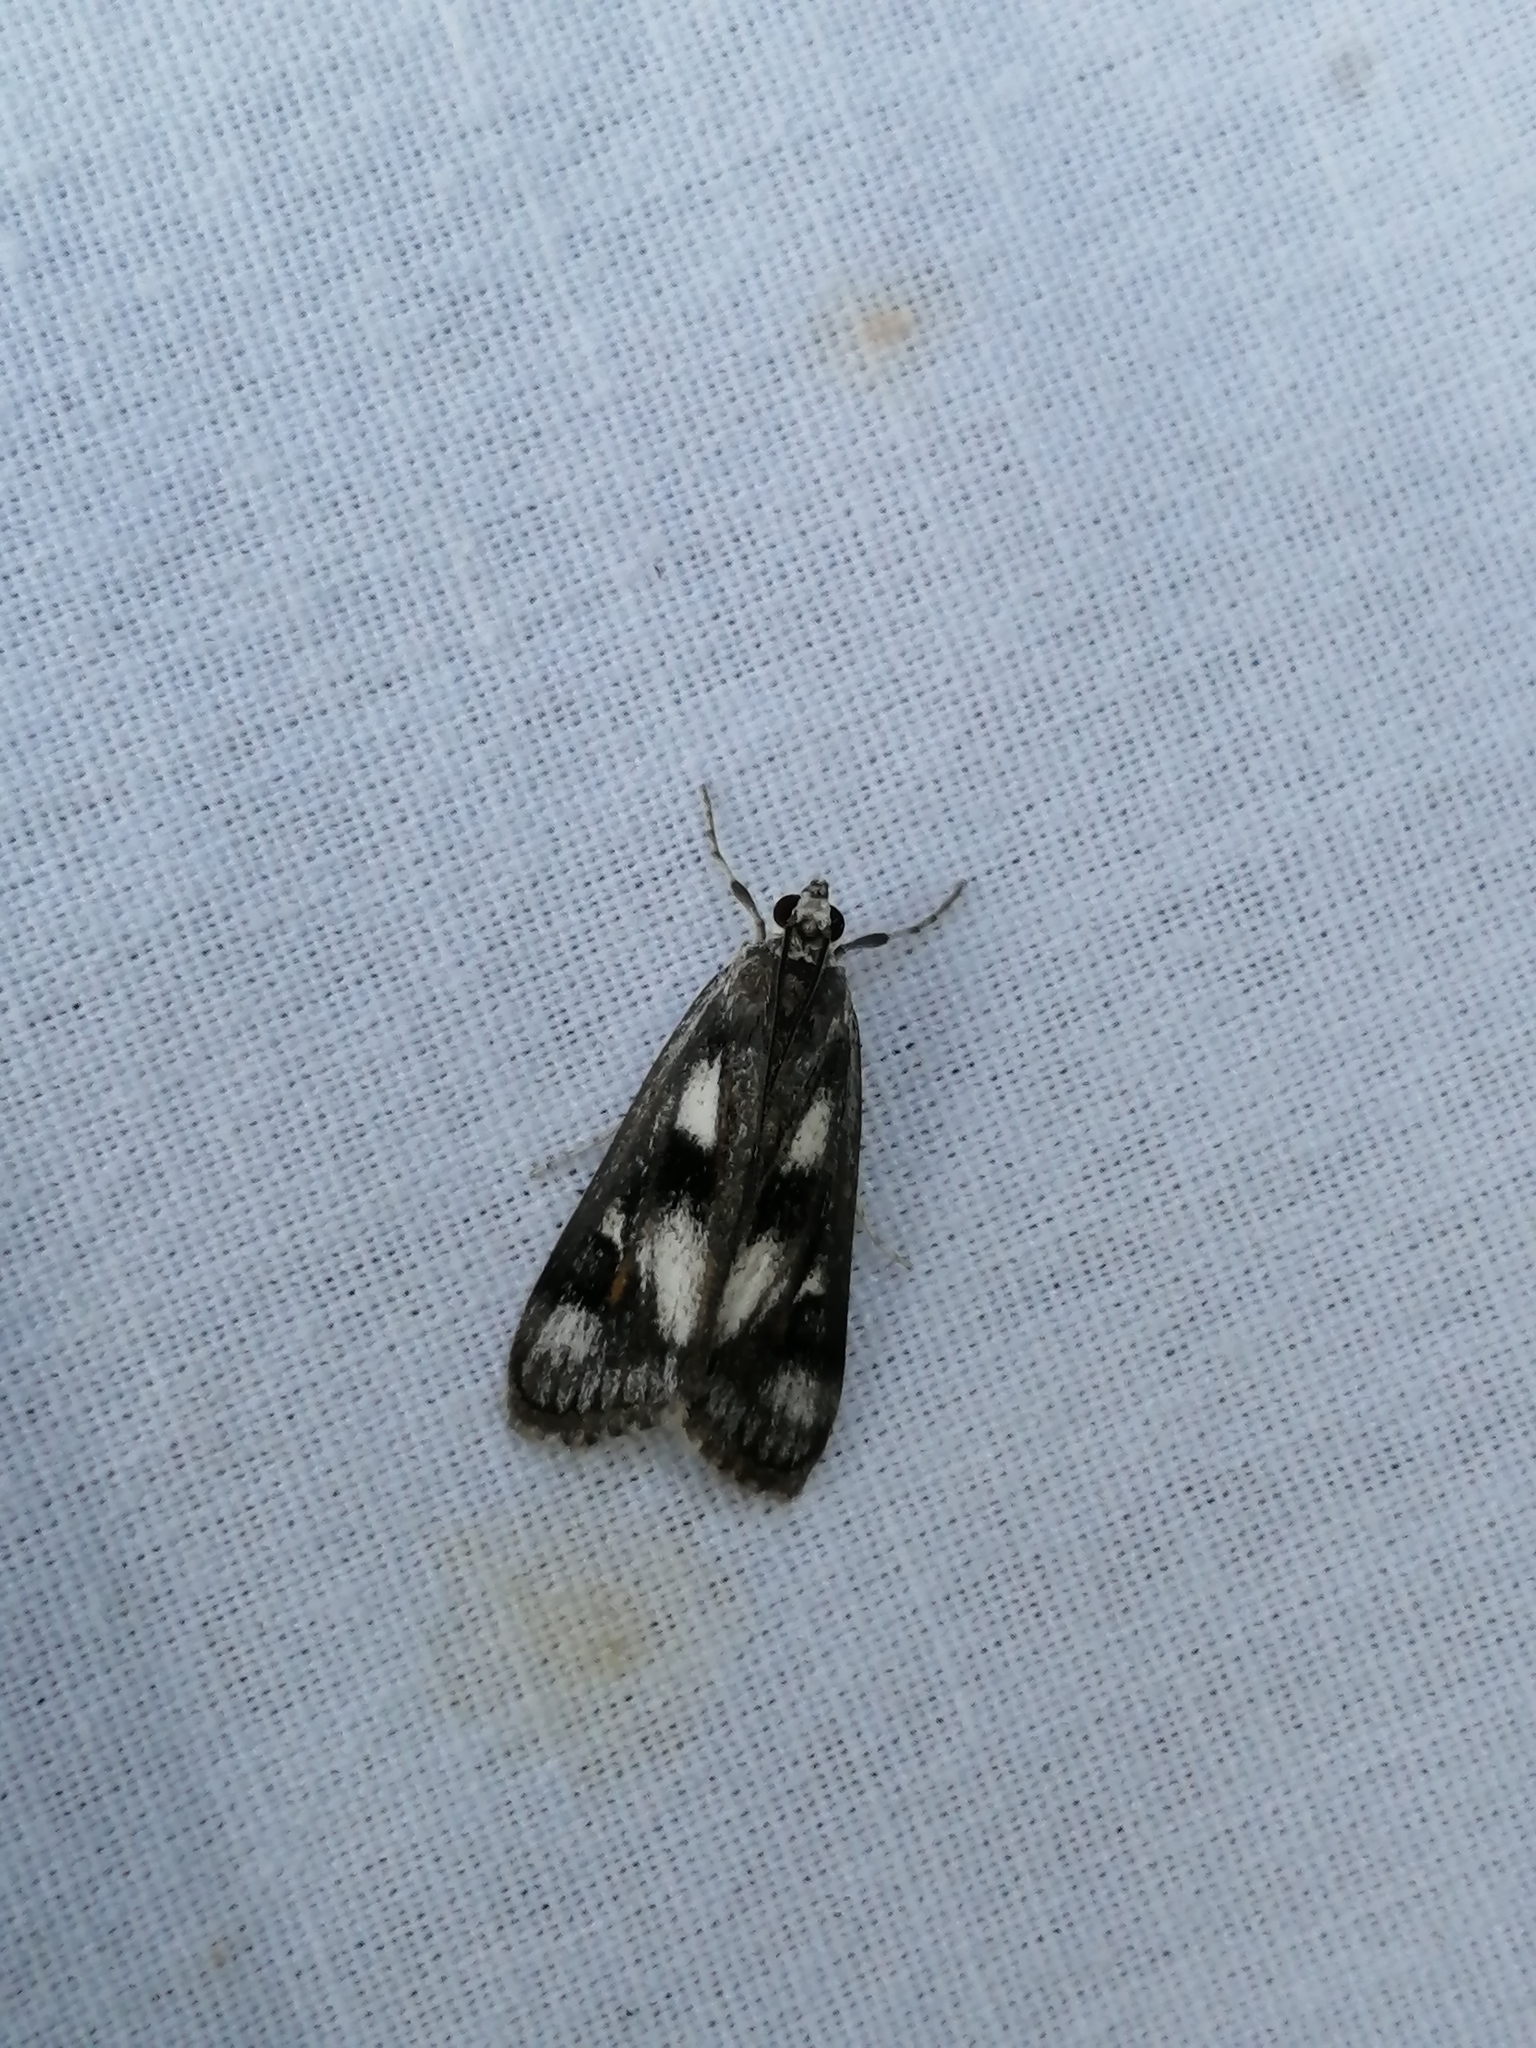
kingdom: Animalia
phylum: Arthropoda
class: Insecta
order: Lepidoptera
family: Crambidae
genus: Parapoynx
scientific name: Parapoynx maculalis
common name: Polymorphic pondweed moth
